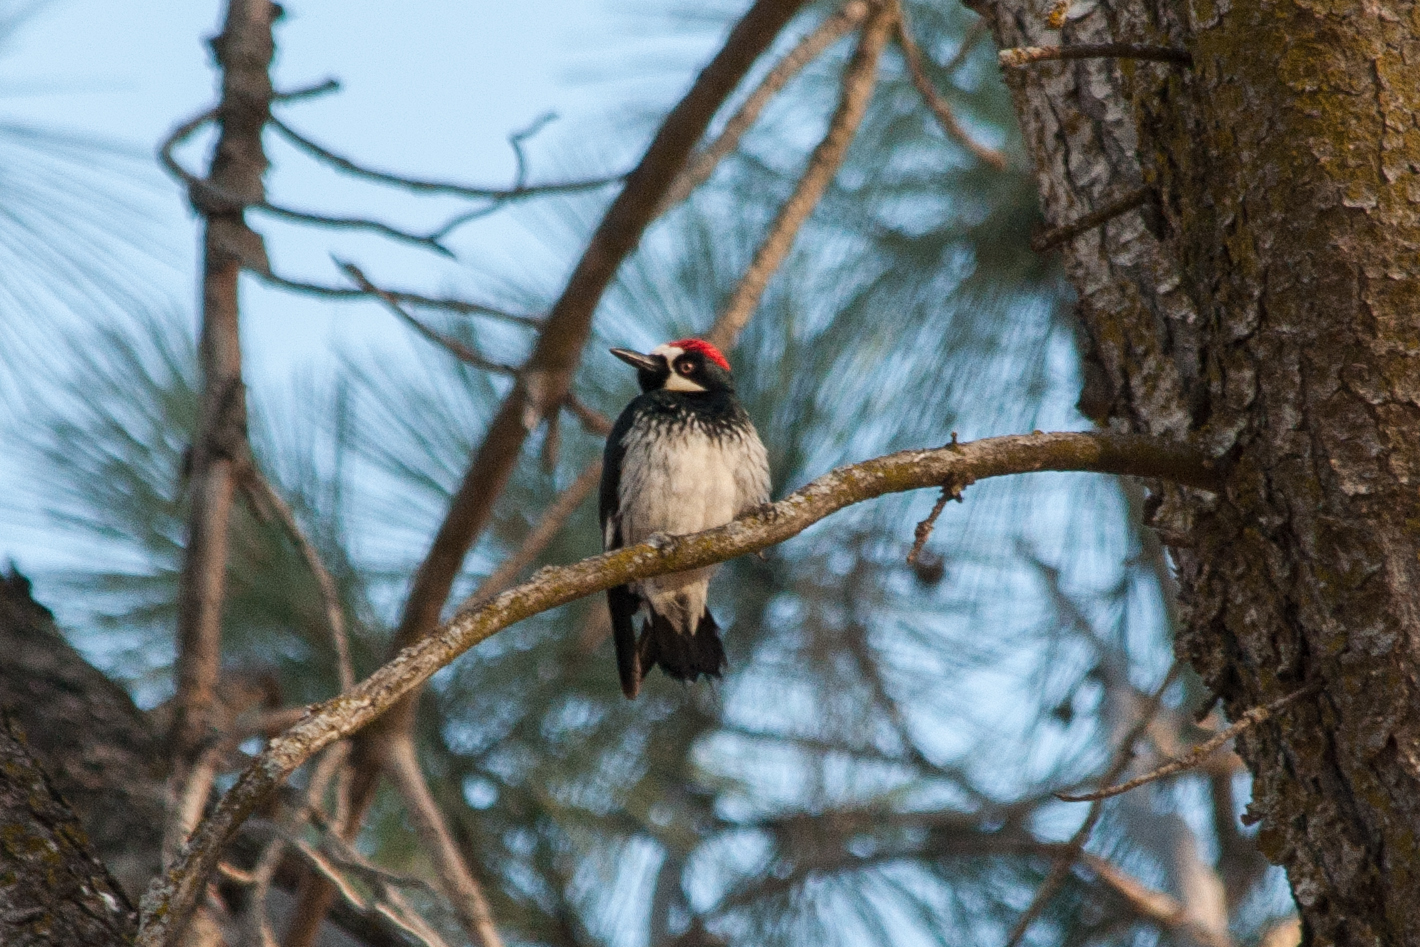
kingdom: Animalia
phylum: Chordata
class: Aves
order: Piciformes
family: Picidae
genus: Melanerpes
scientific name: Melanerpes formicivorus
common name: Acorn woodpecker
